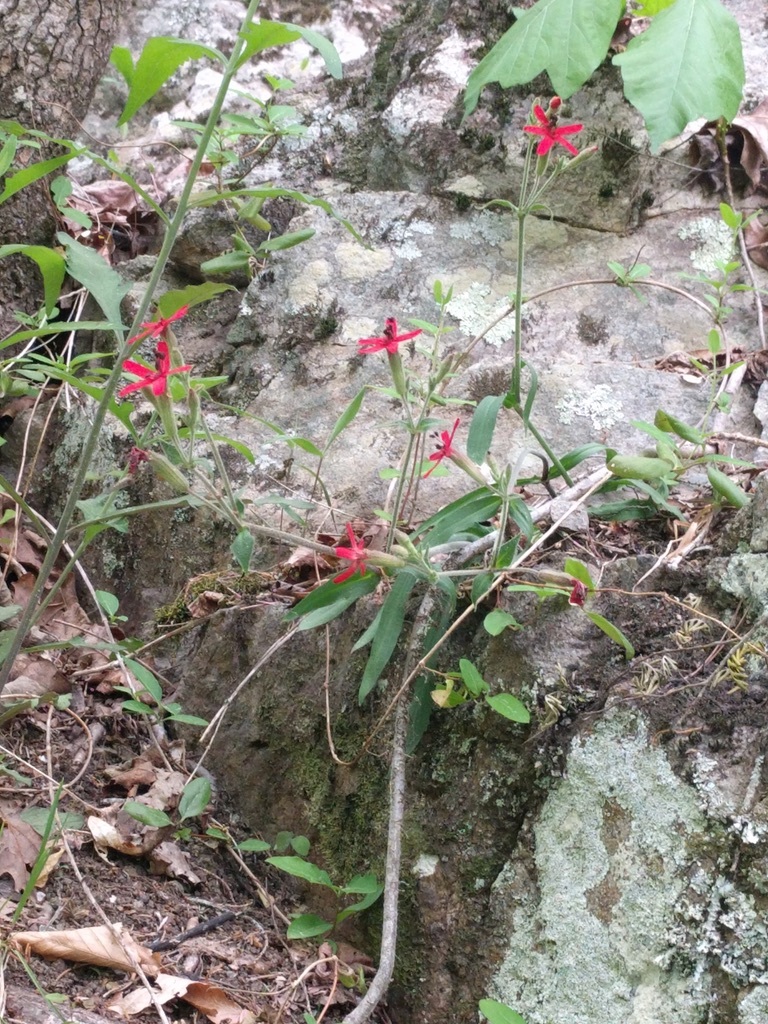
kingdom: Plantae
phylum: Tracheophyta
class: Magnoliopsida
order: Caryophyllales
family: Caryophyllaceae
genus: Silene
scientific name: Silene virginica
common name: Fire-pink
